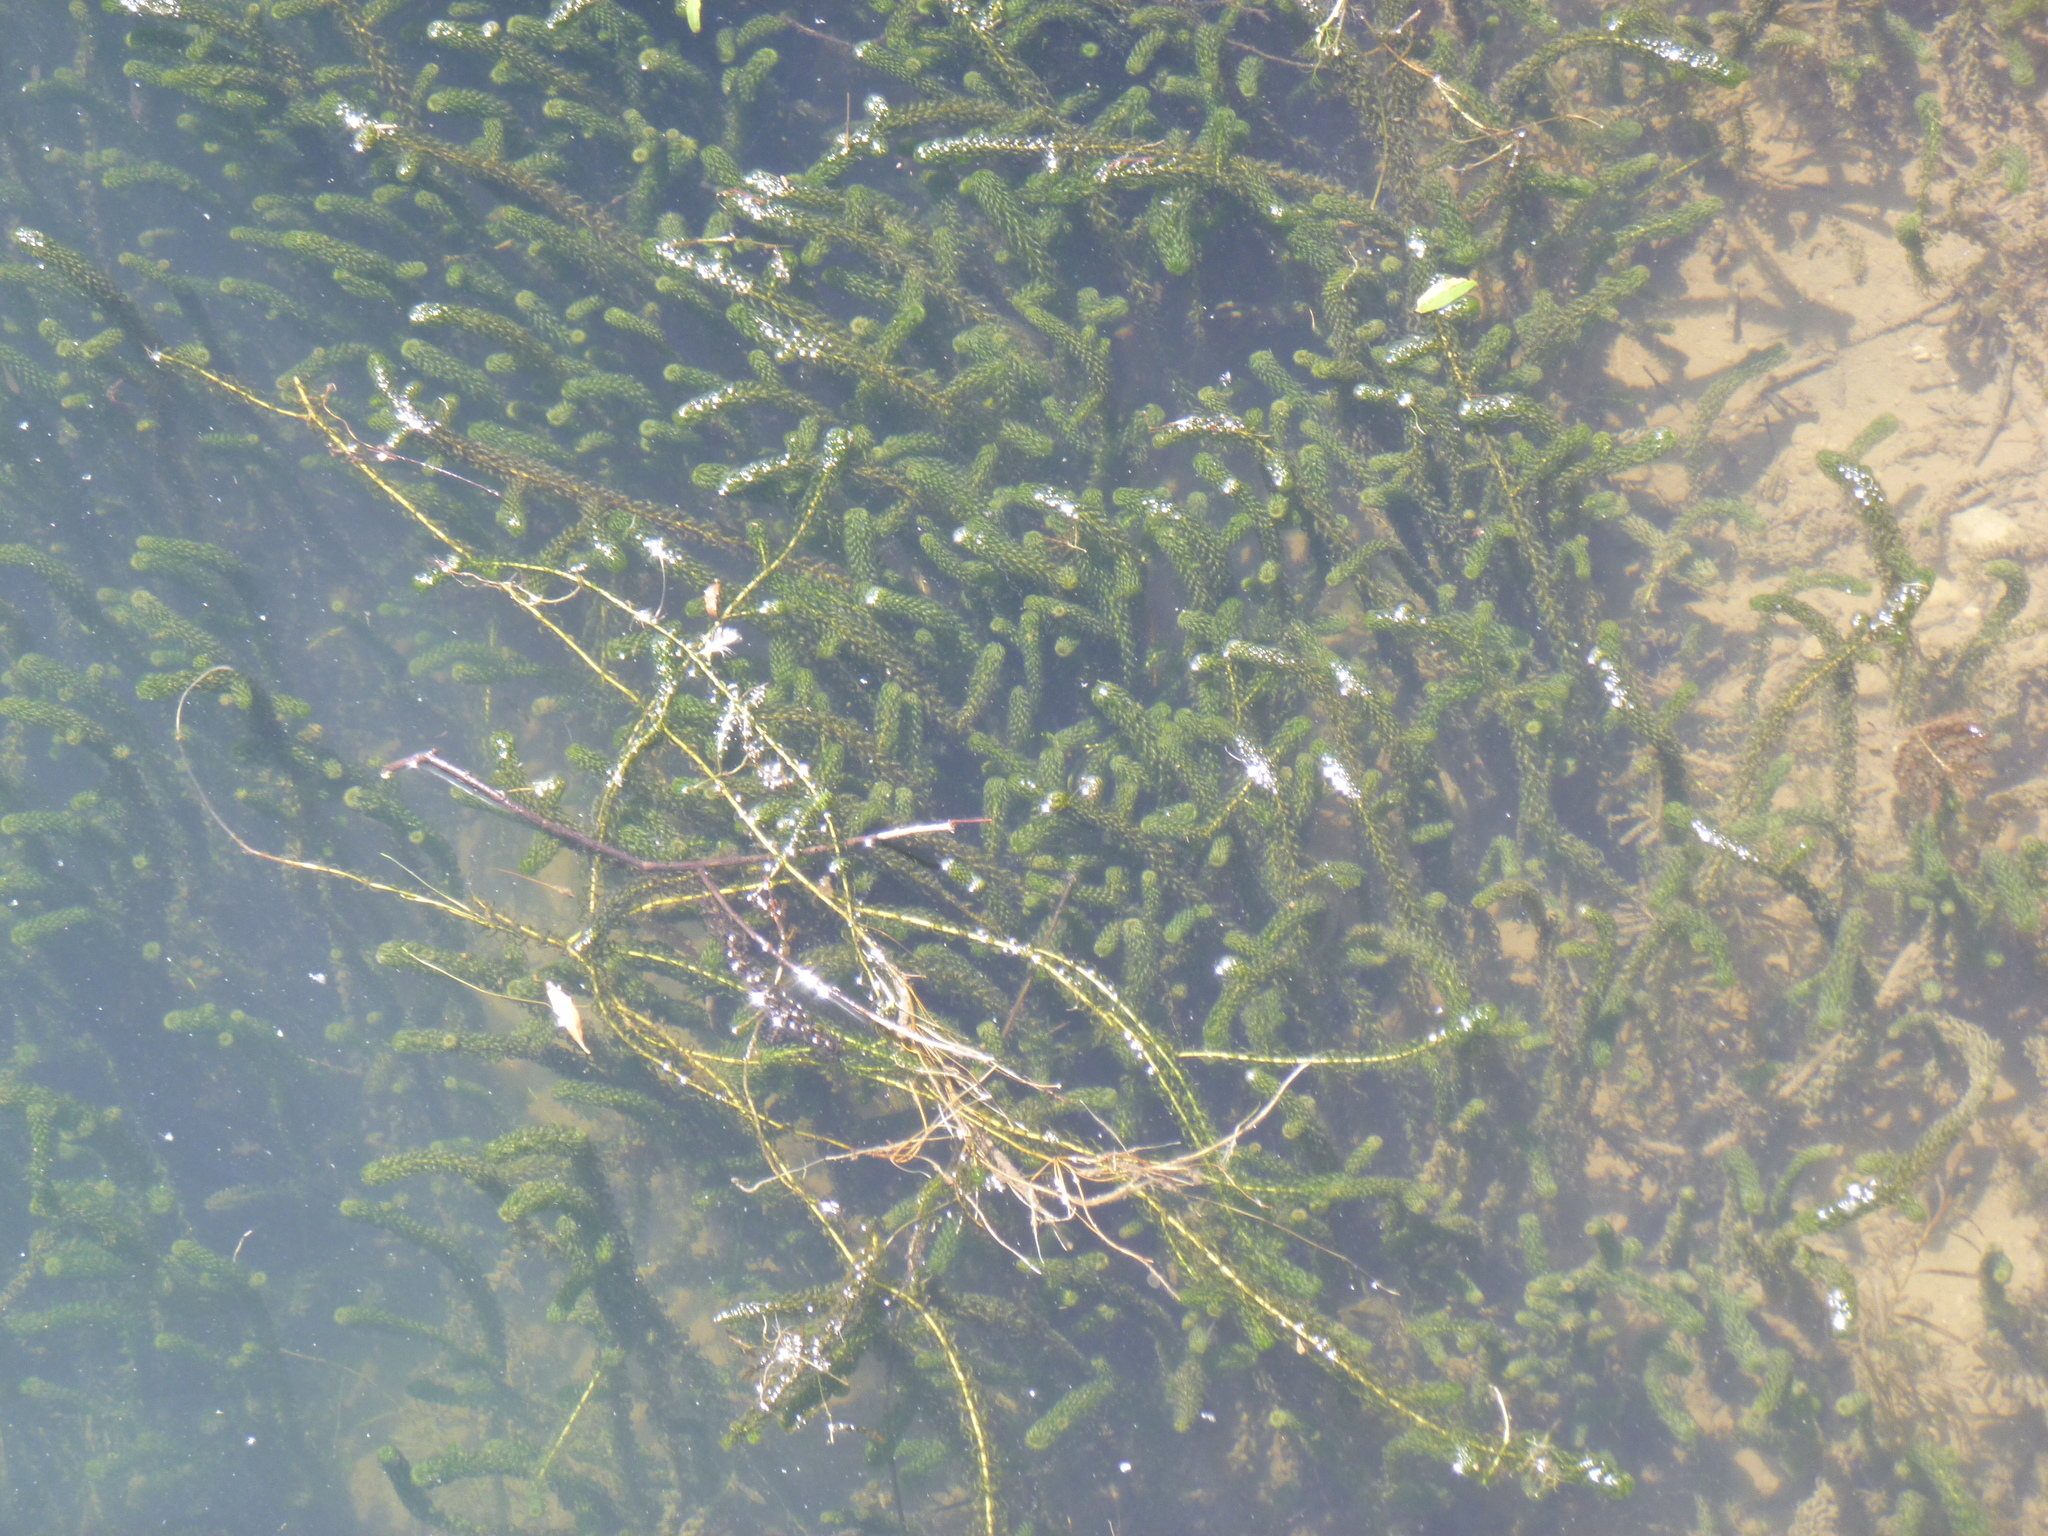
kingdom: Plantae
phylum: Tracheophyta
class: Liliopsida
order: Alismatales
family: Hydrocharitaceae
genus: Elodea
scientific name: Elodea canadensis
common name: Canadian waterweed
